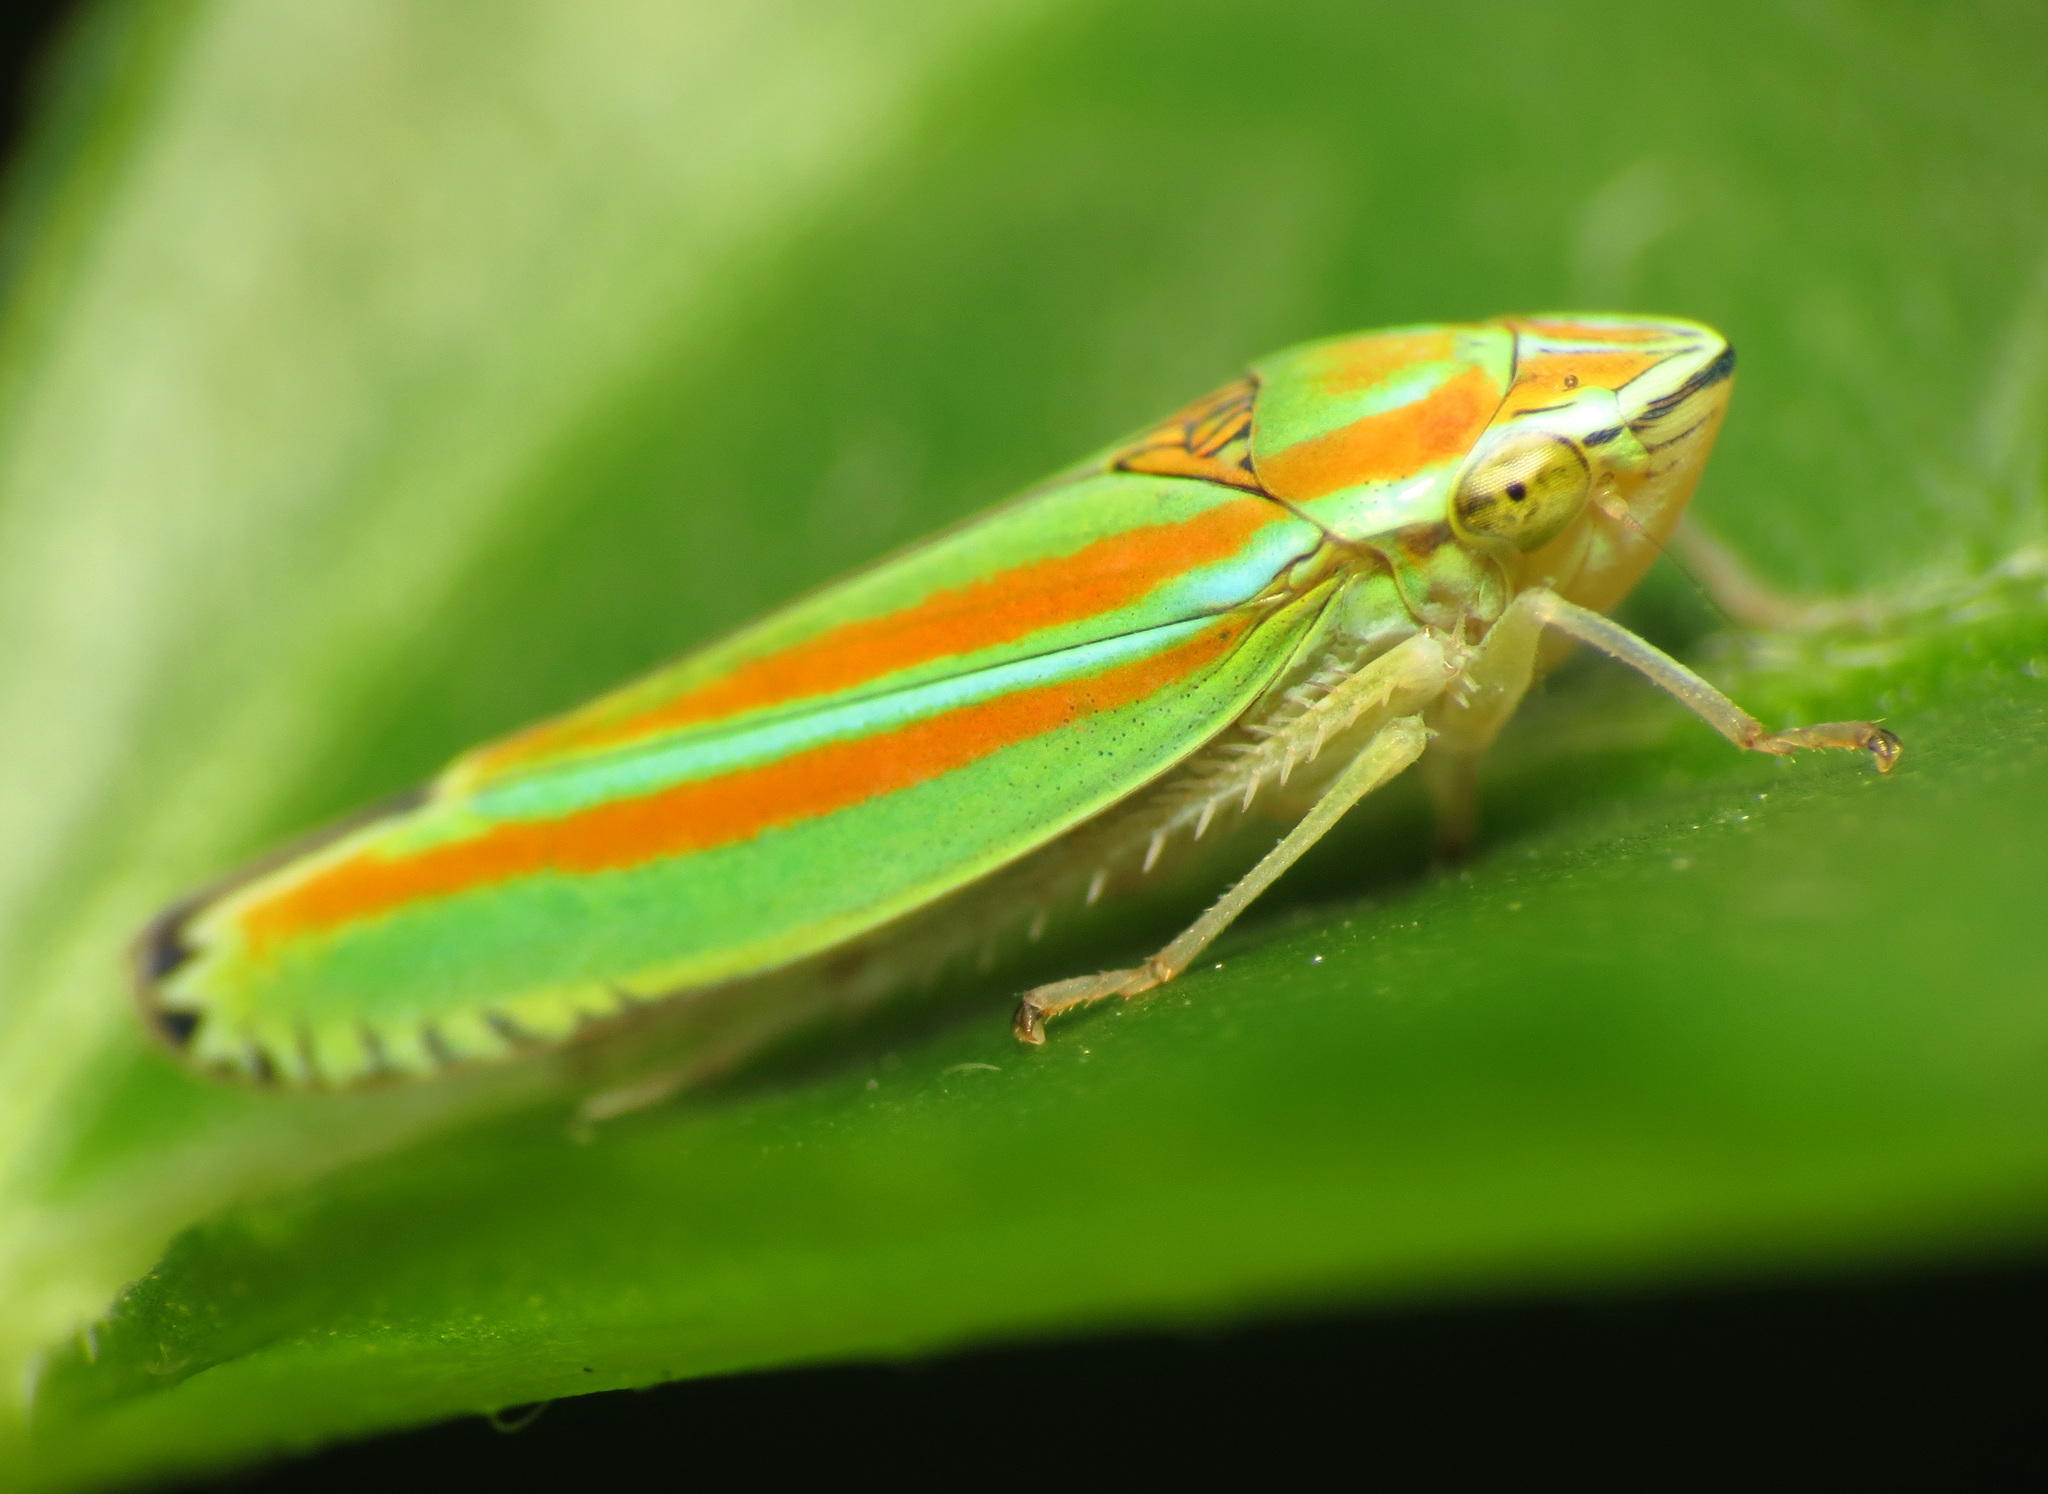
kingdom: Animalia
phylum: Arthropoda
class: Insecta
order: Hemiptera
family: Cicadellidae
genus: Graphocephala
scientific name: Graphocephala versuta
